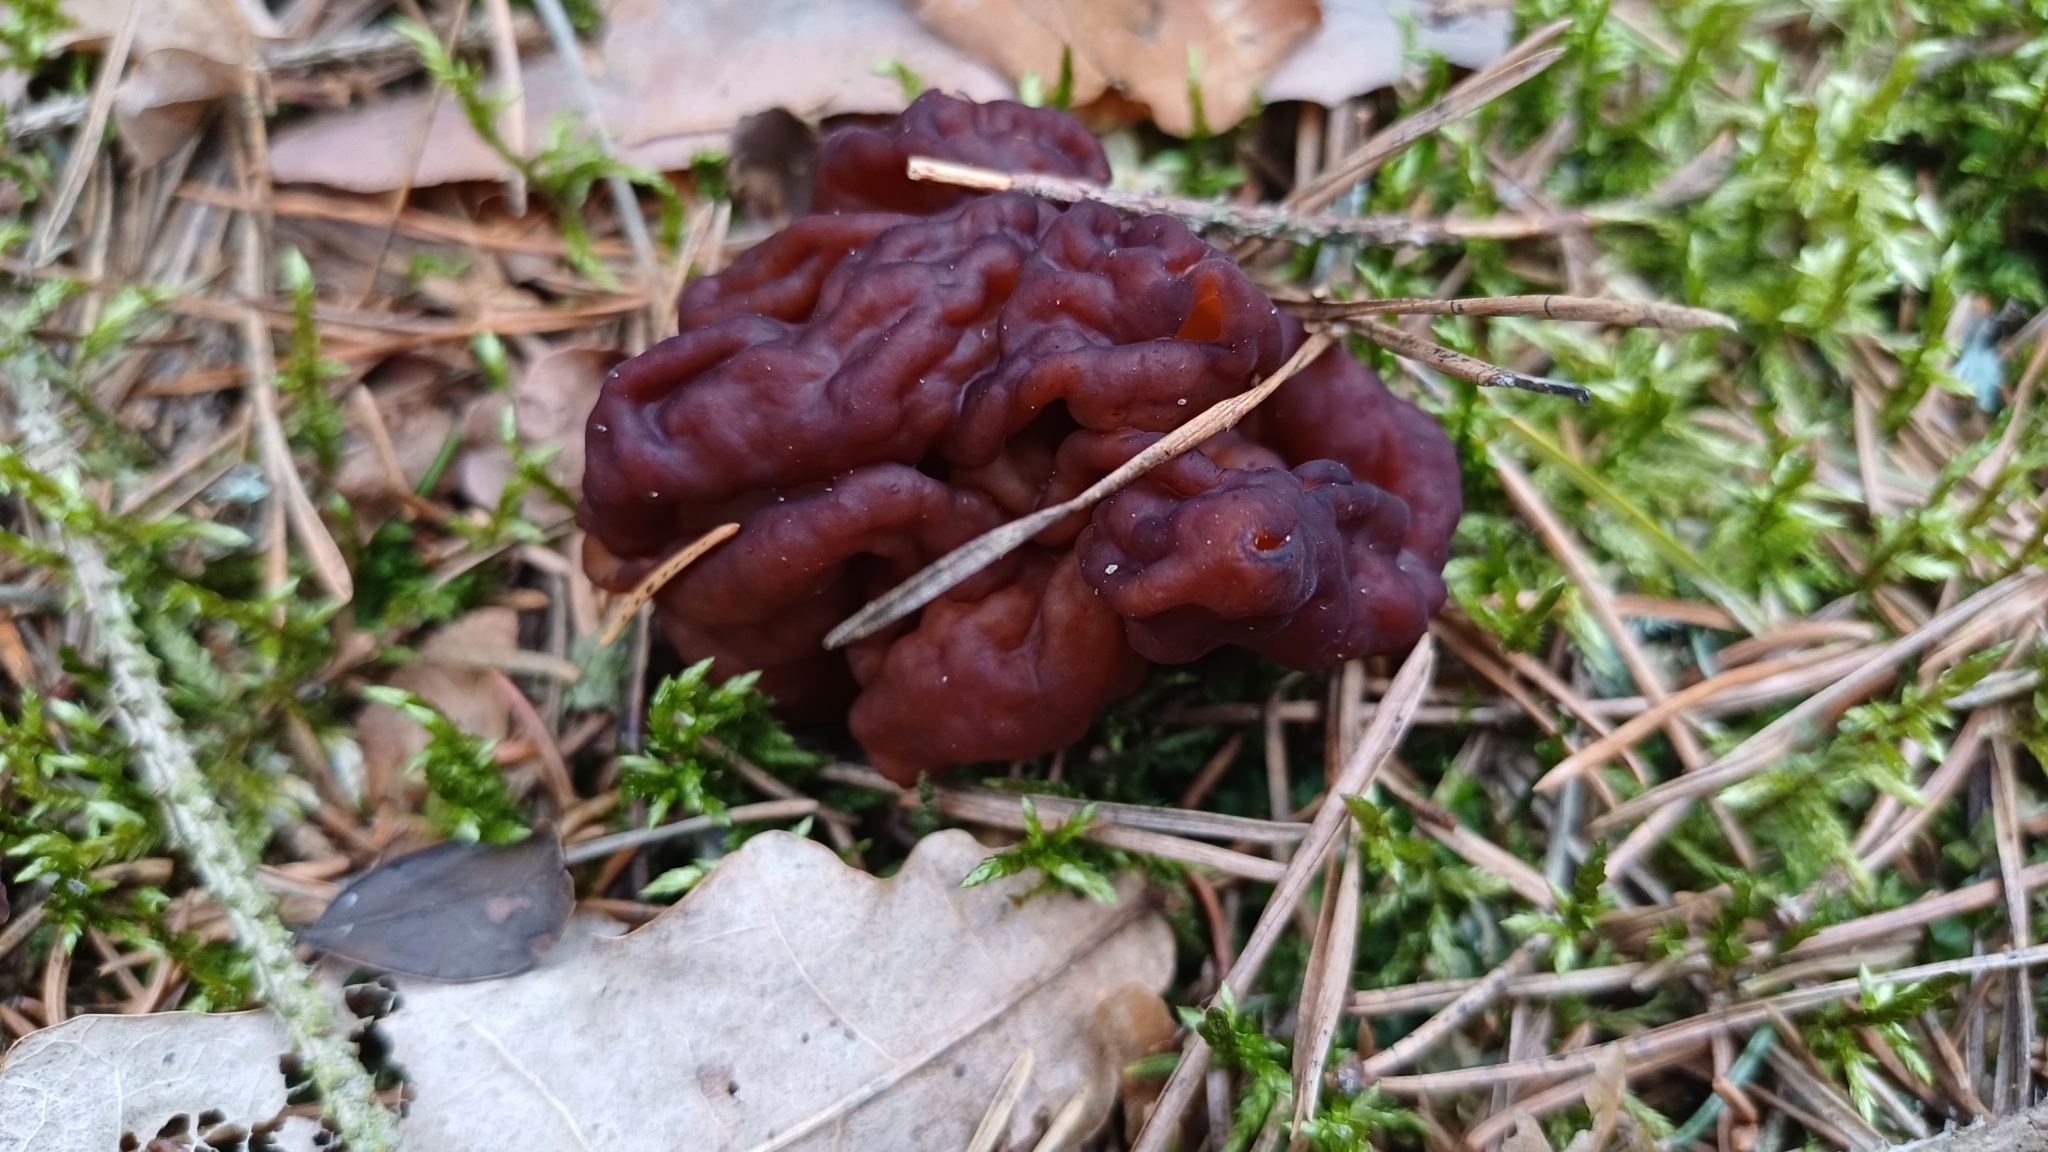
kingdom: Fungi
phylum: Ascomycota
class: Pezizomycetes
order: Pezizales
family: Discinaceae
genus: Gyromitra
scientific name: Gyromitra esculenta
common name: False morel
